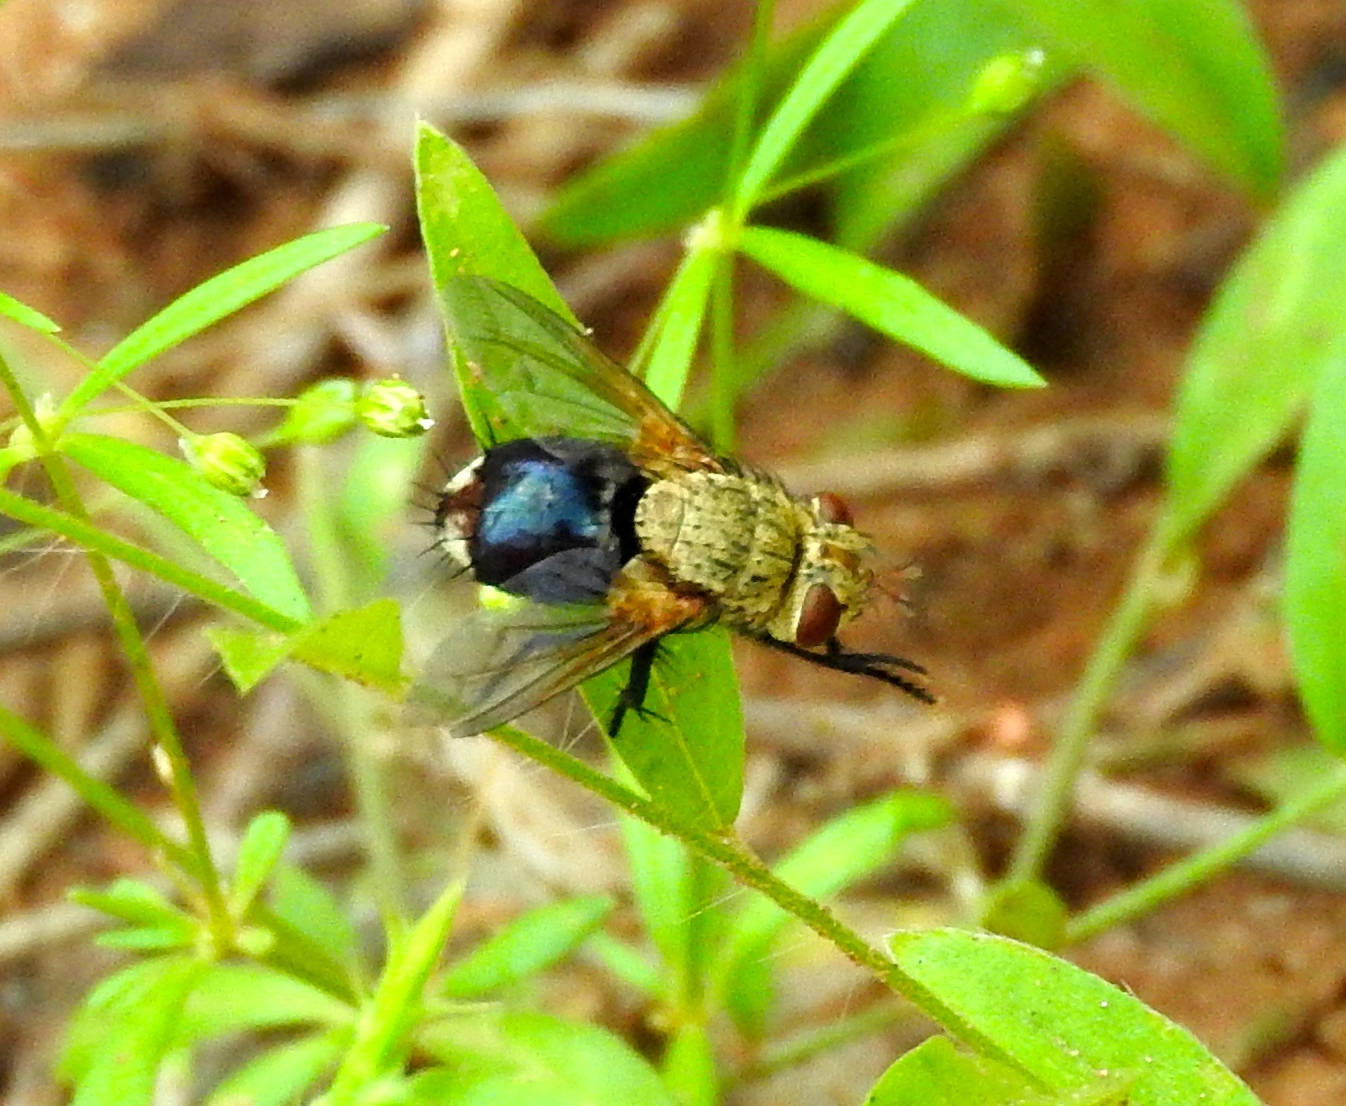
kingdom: Animalia
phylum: Arthropoda
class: Insecta
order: Diptera
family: Tachinidae
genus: Archytas
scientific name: Archytas
